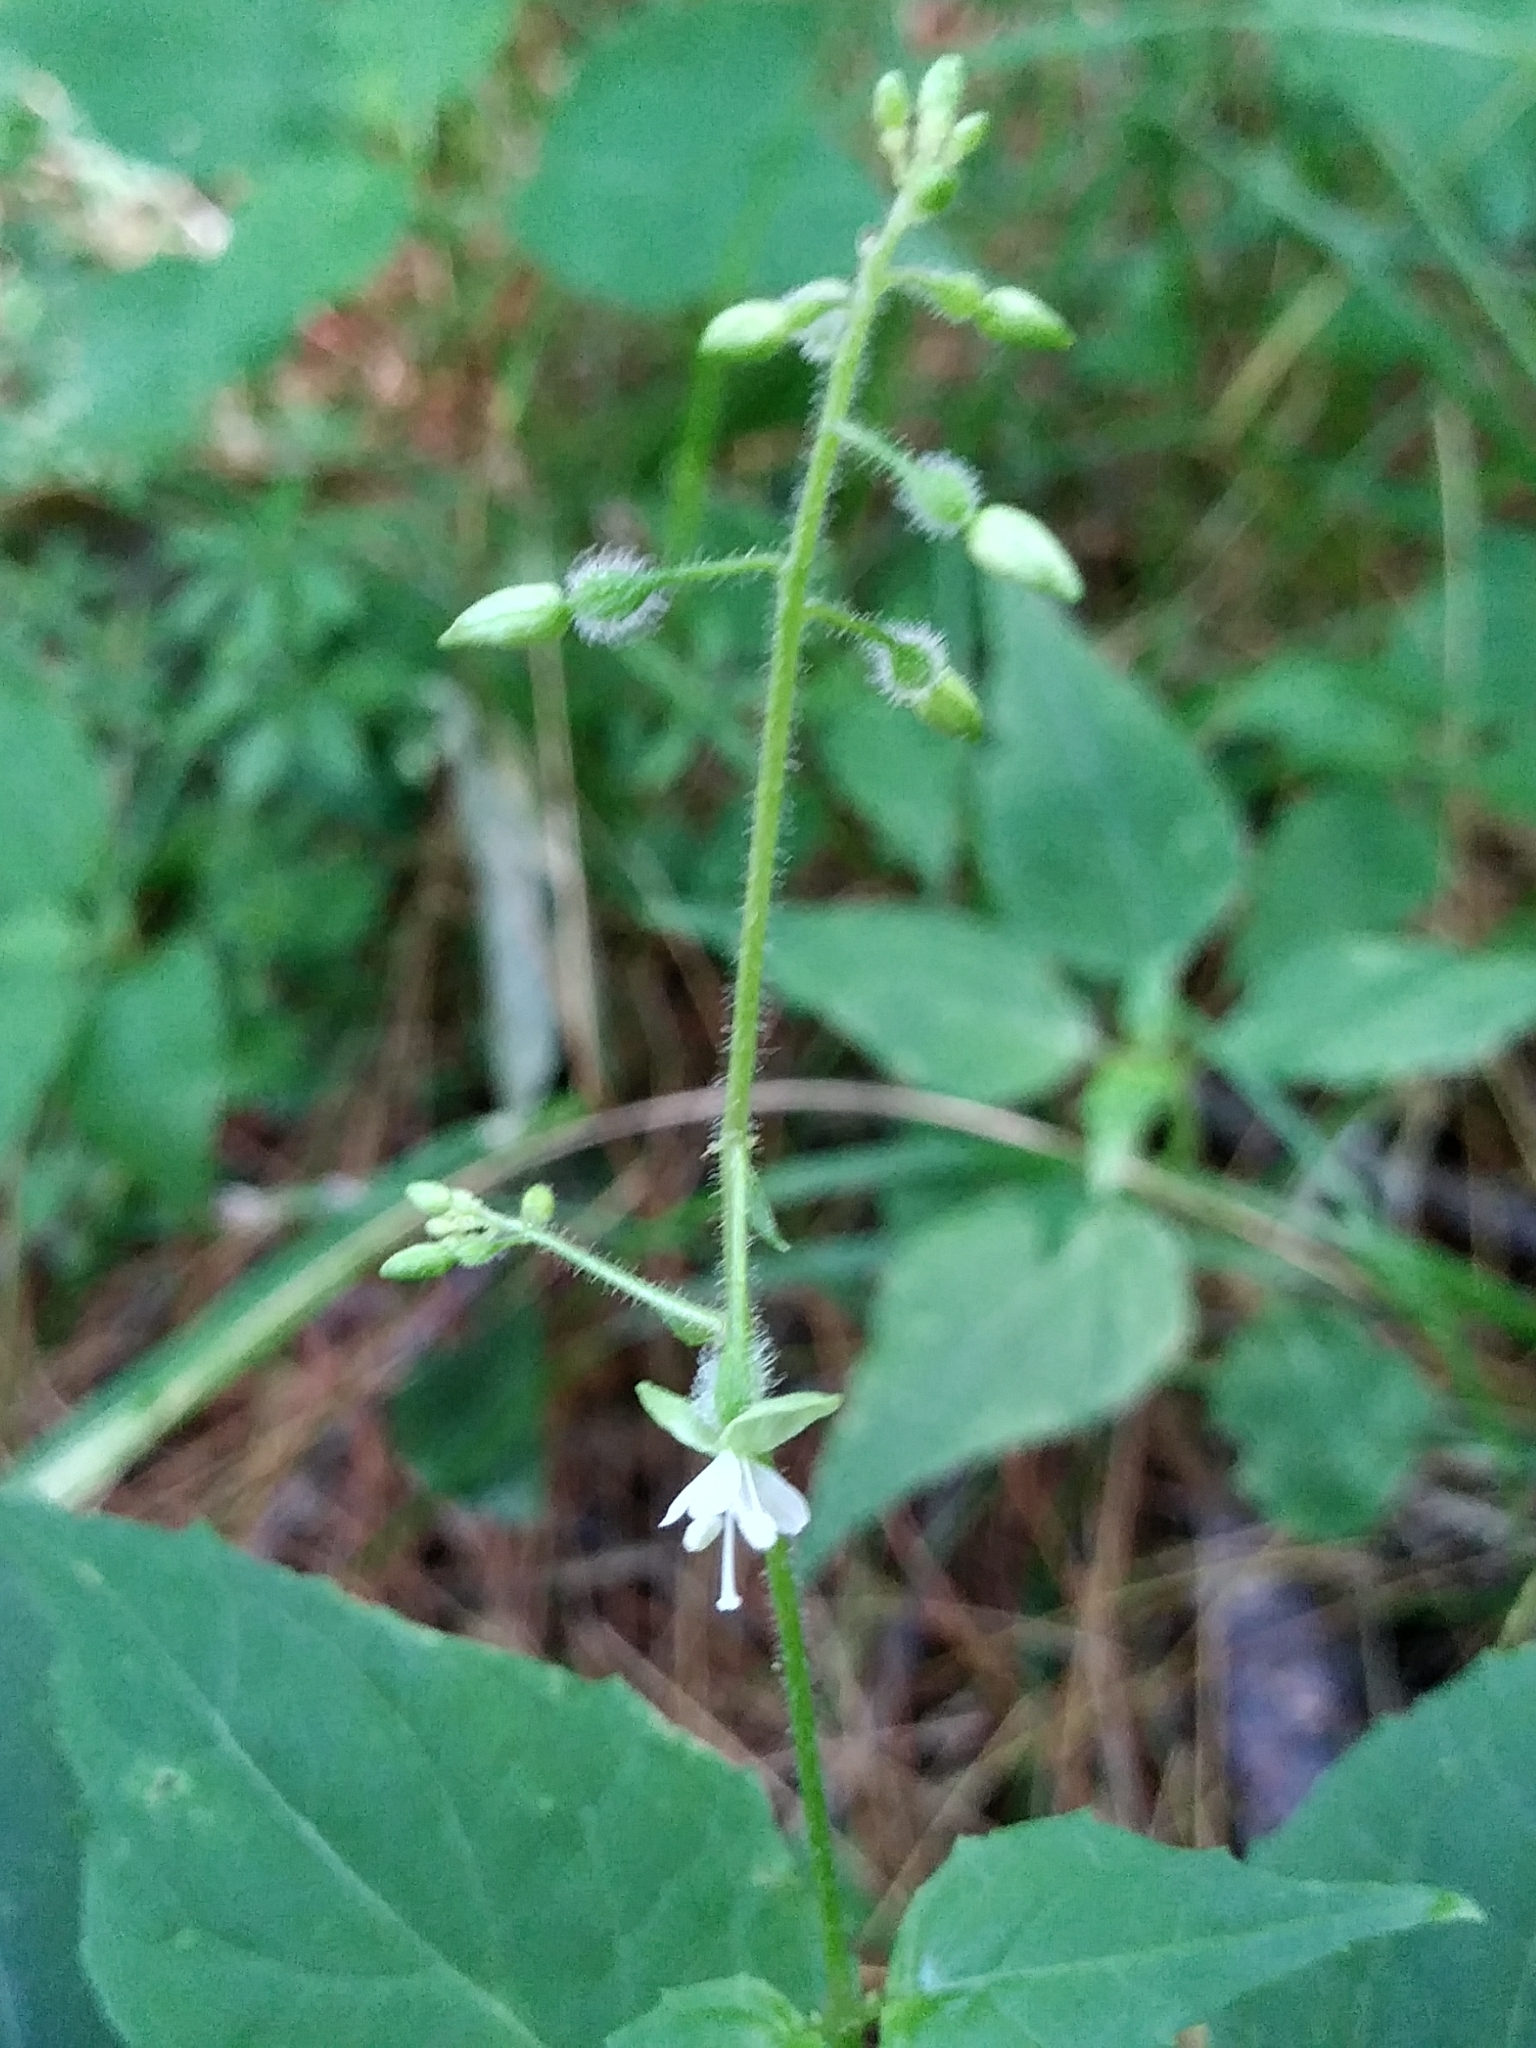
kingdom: Plantae
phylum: Tracheophyta
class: Magnoliopsida
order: Myrtales
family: Onagraceae
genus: Circaea
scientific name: Circaea canadensis
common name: Broad-leaved enchanter's nightshade
